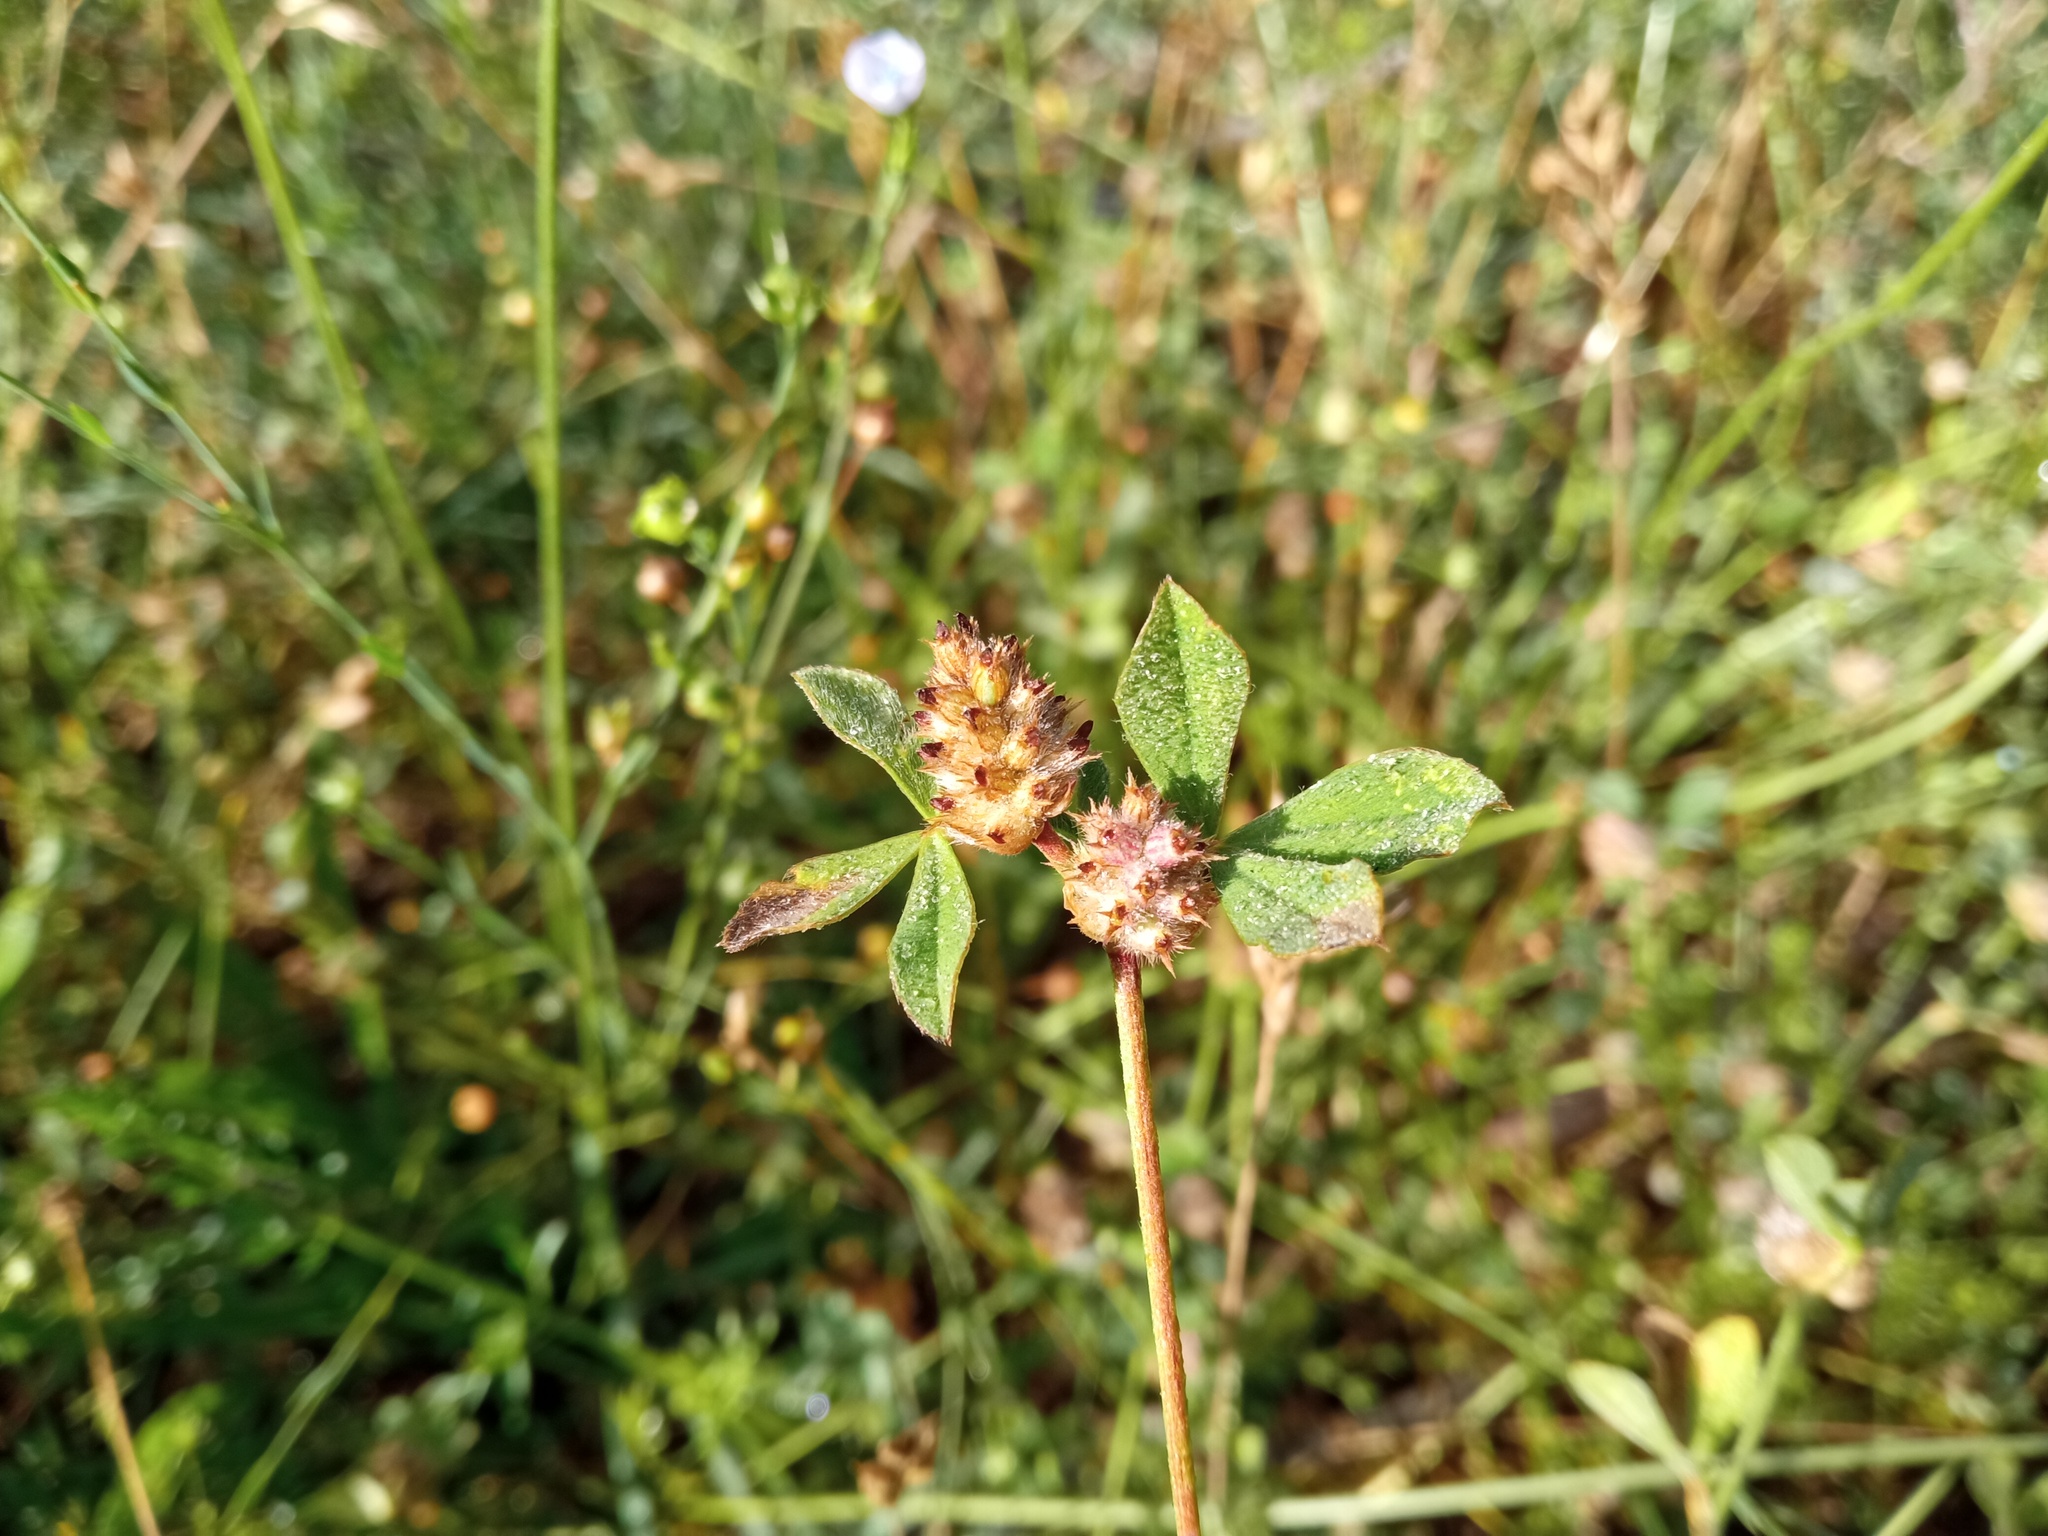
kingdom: Plantae
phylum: Tracheophyta
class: Magnoliopsida
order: Fabales
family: Fabaceae
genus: Trifolium
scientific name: Trifolium striatum
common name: Knotted clover
